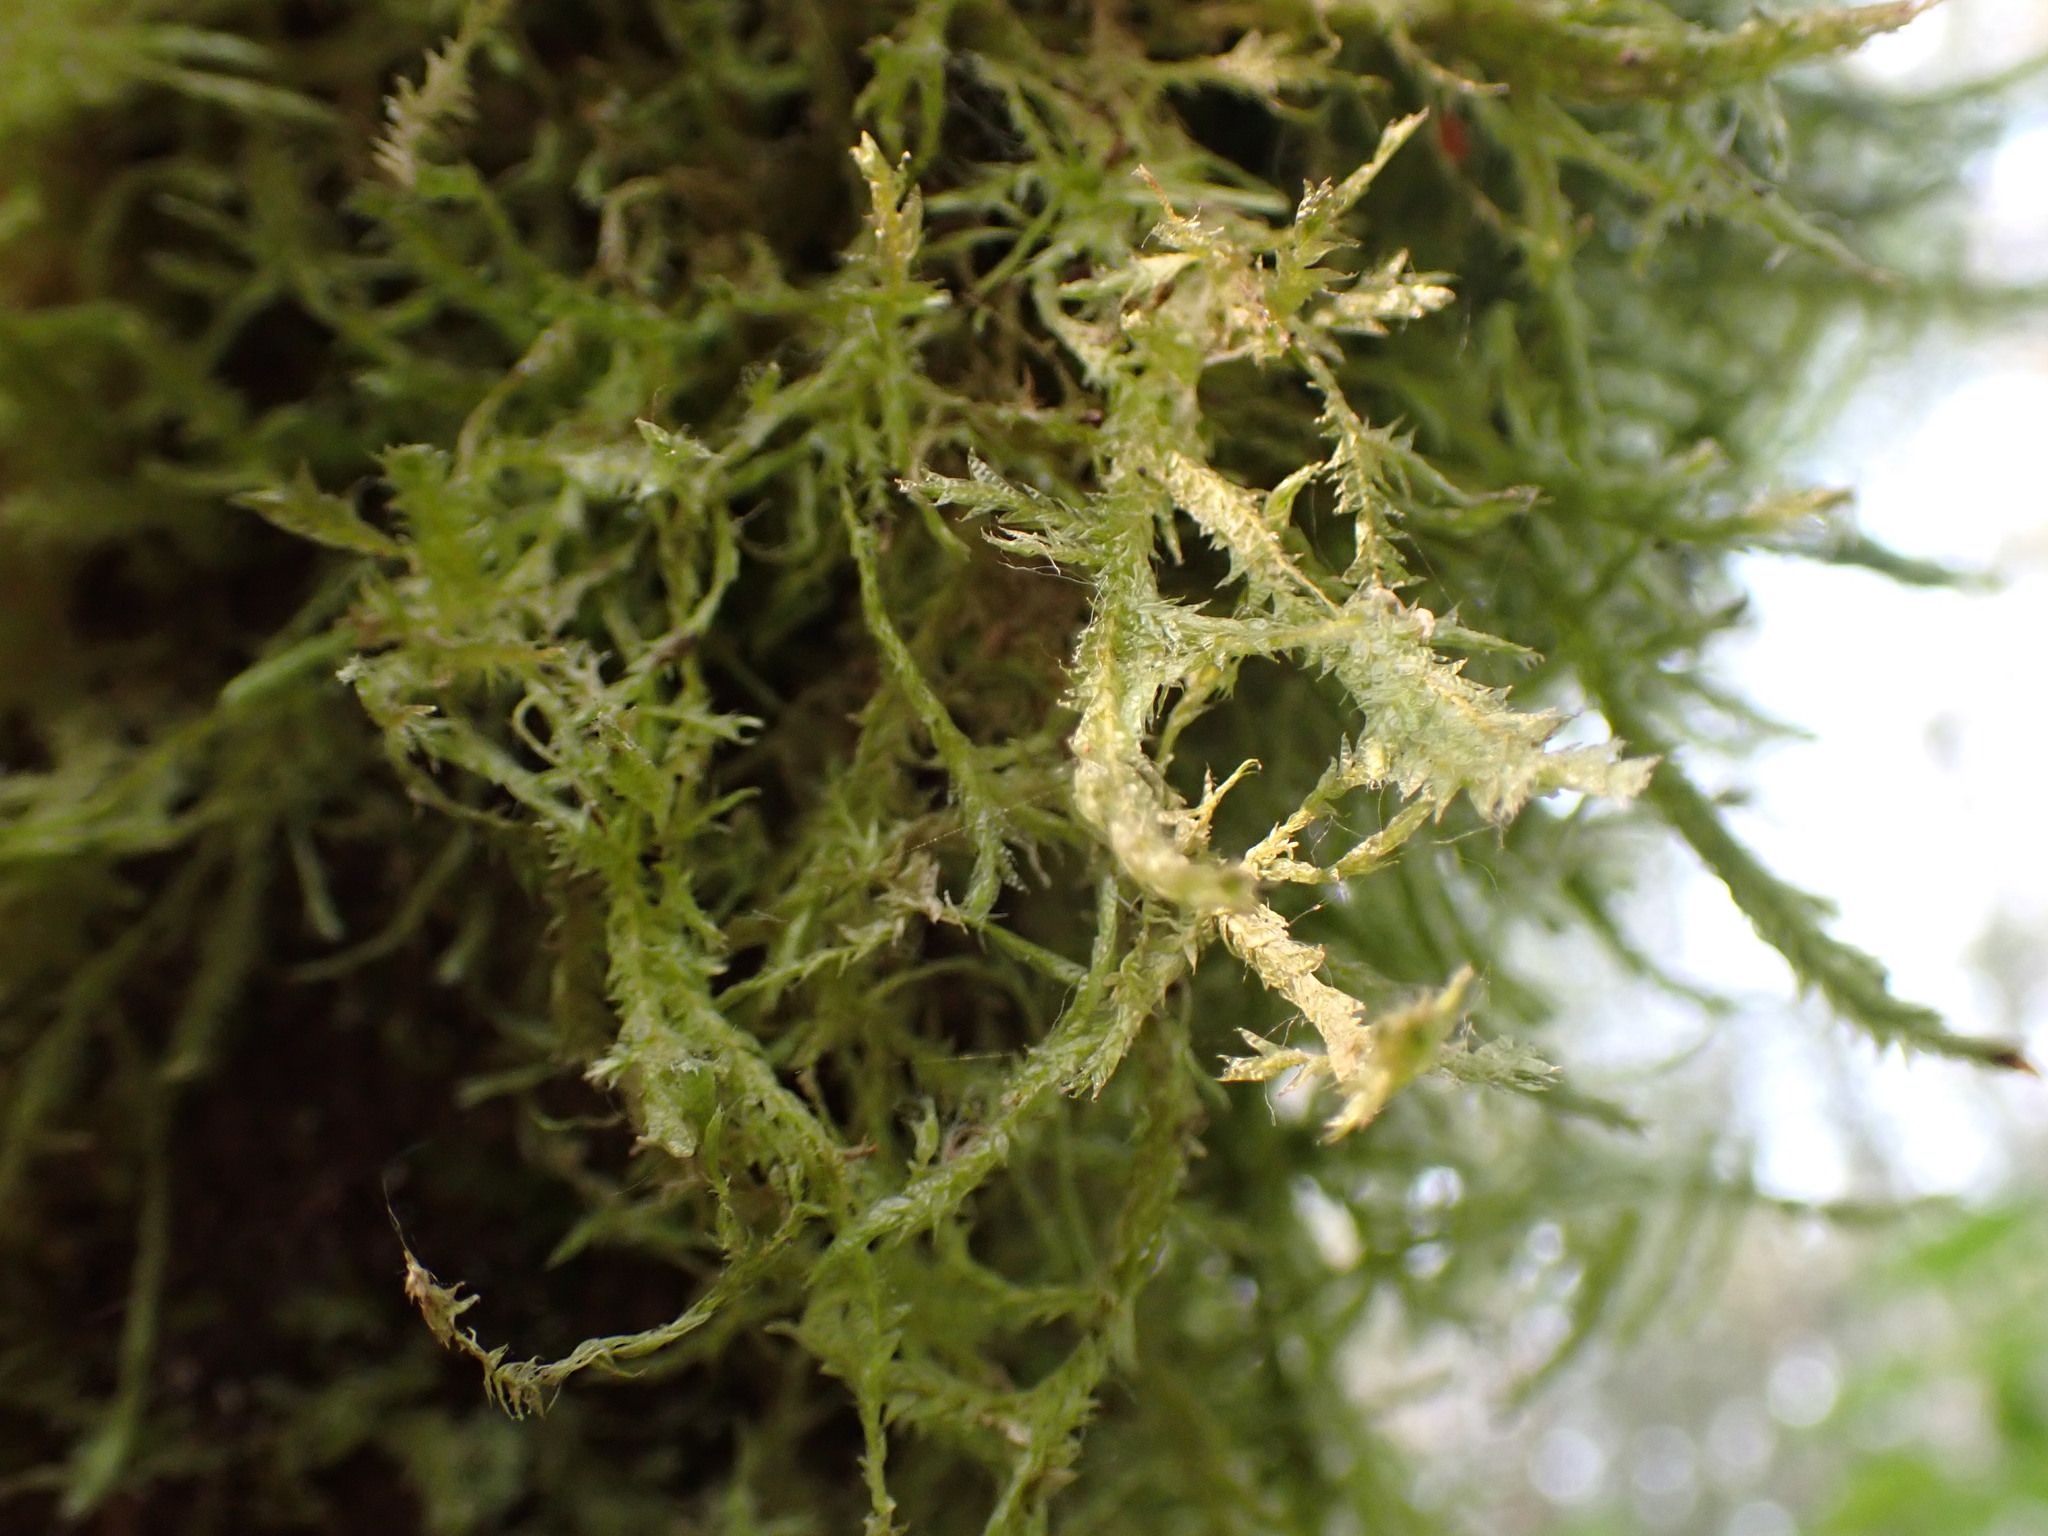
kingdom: Plantae
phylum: Bryophyta
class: Bryopsida
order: Hypnales
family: Neckeraceae
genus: Neckera
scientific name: Neckera douglasii
